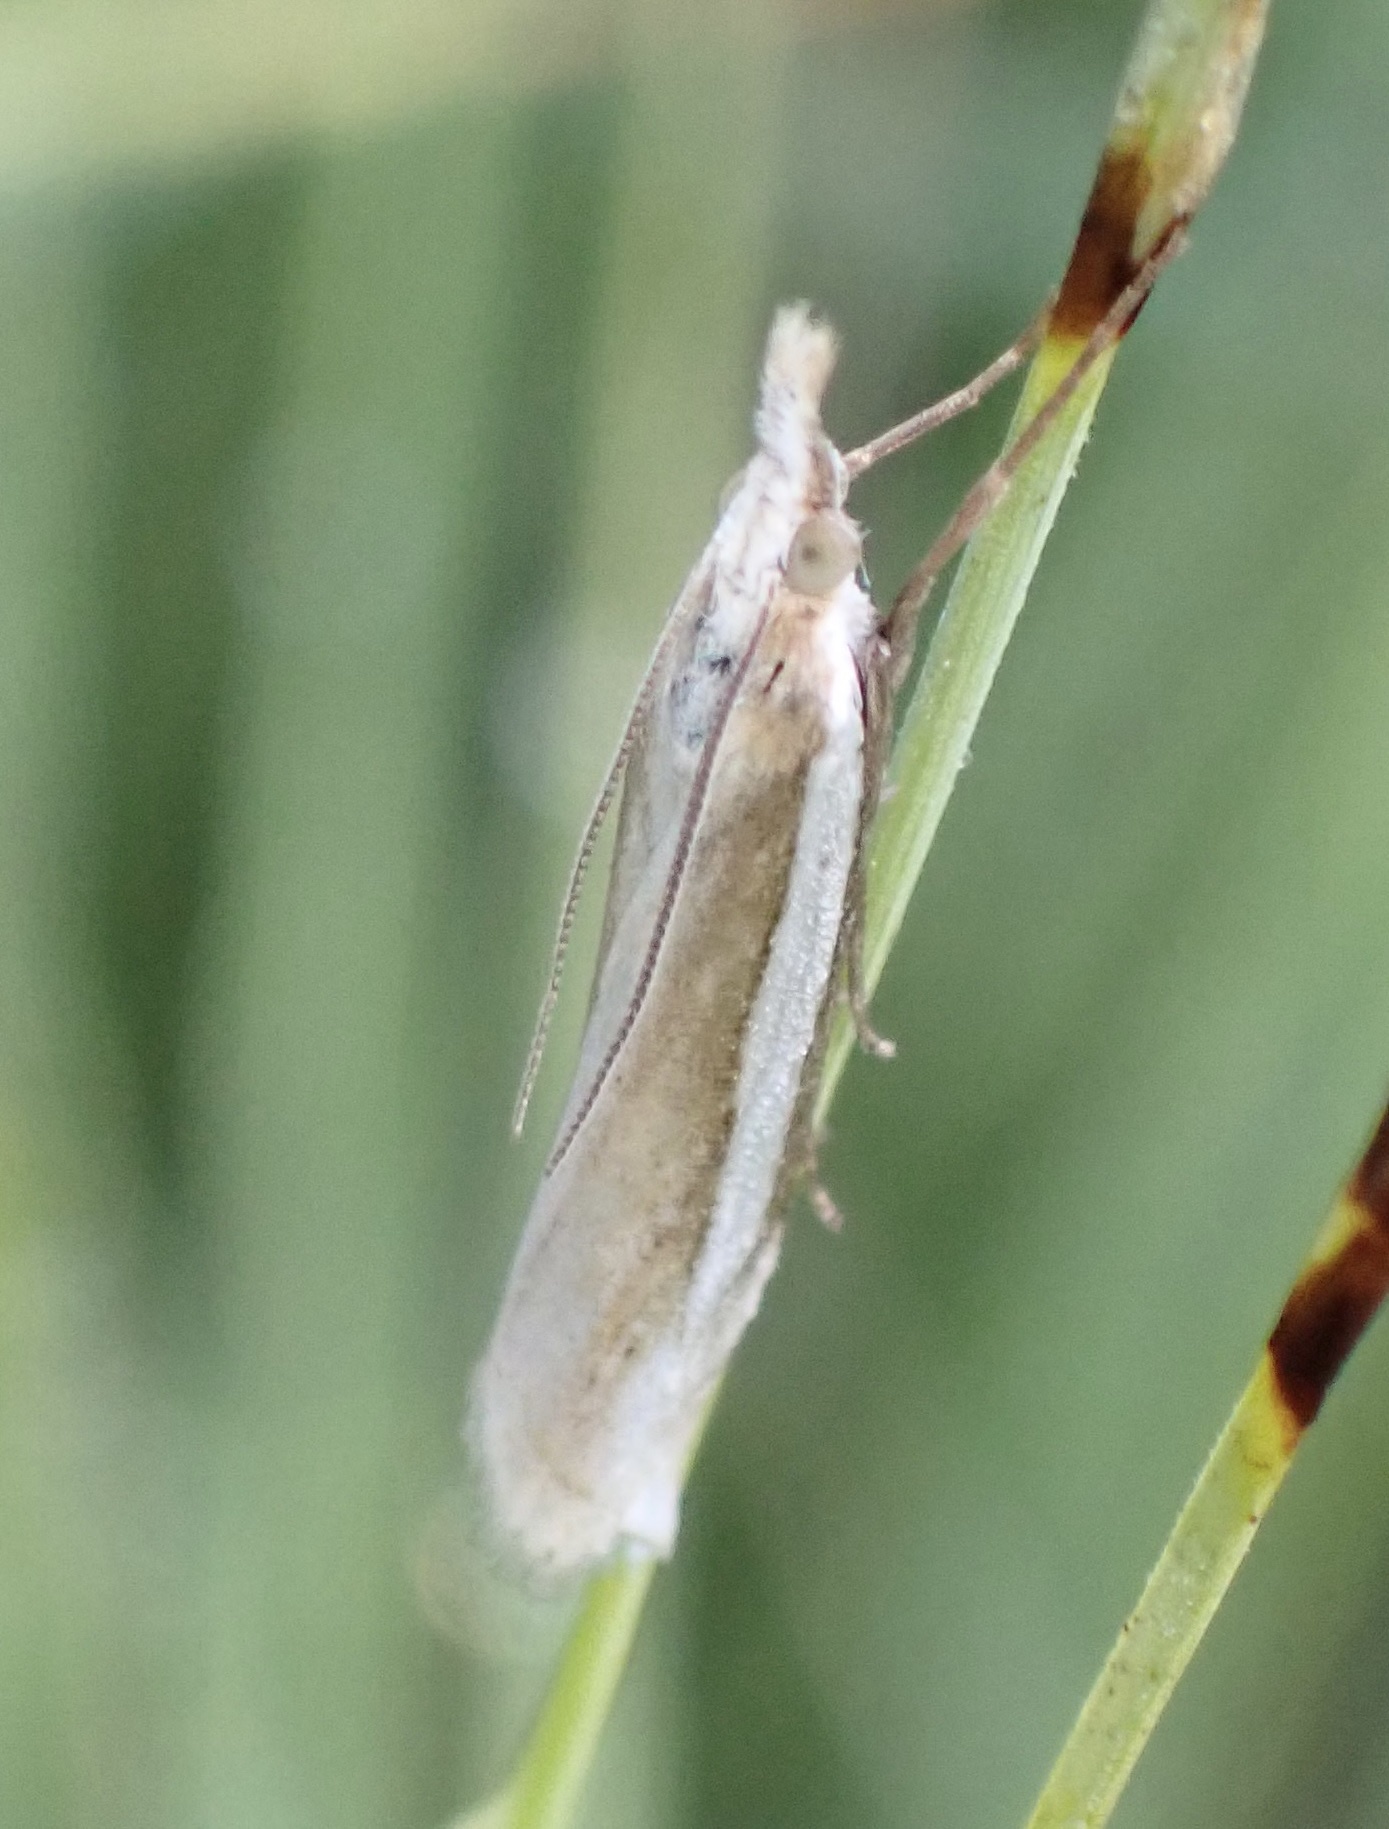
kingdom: Animalia
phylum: Arthropoda
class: Insecta
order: Lepidoptera
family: Crambidae
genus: Crambus
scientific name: Crambus pascuella
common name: Inlaid grass-veneer
